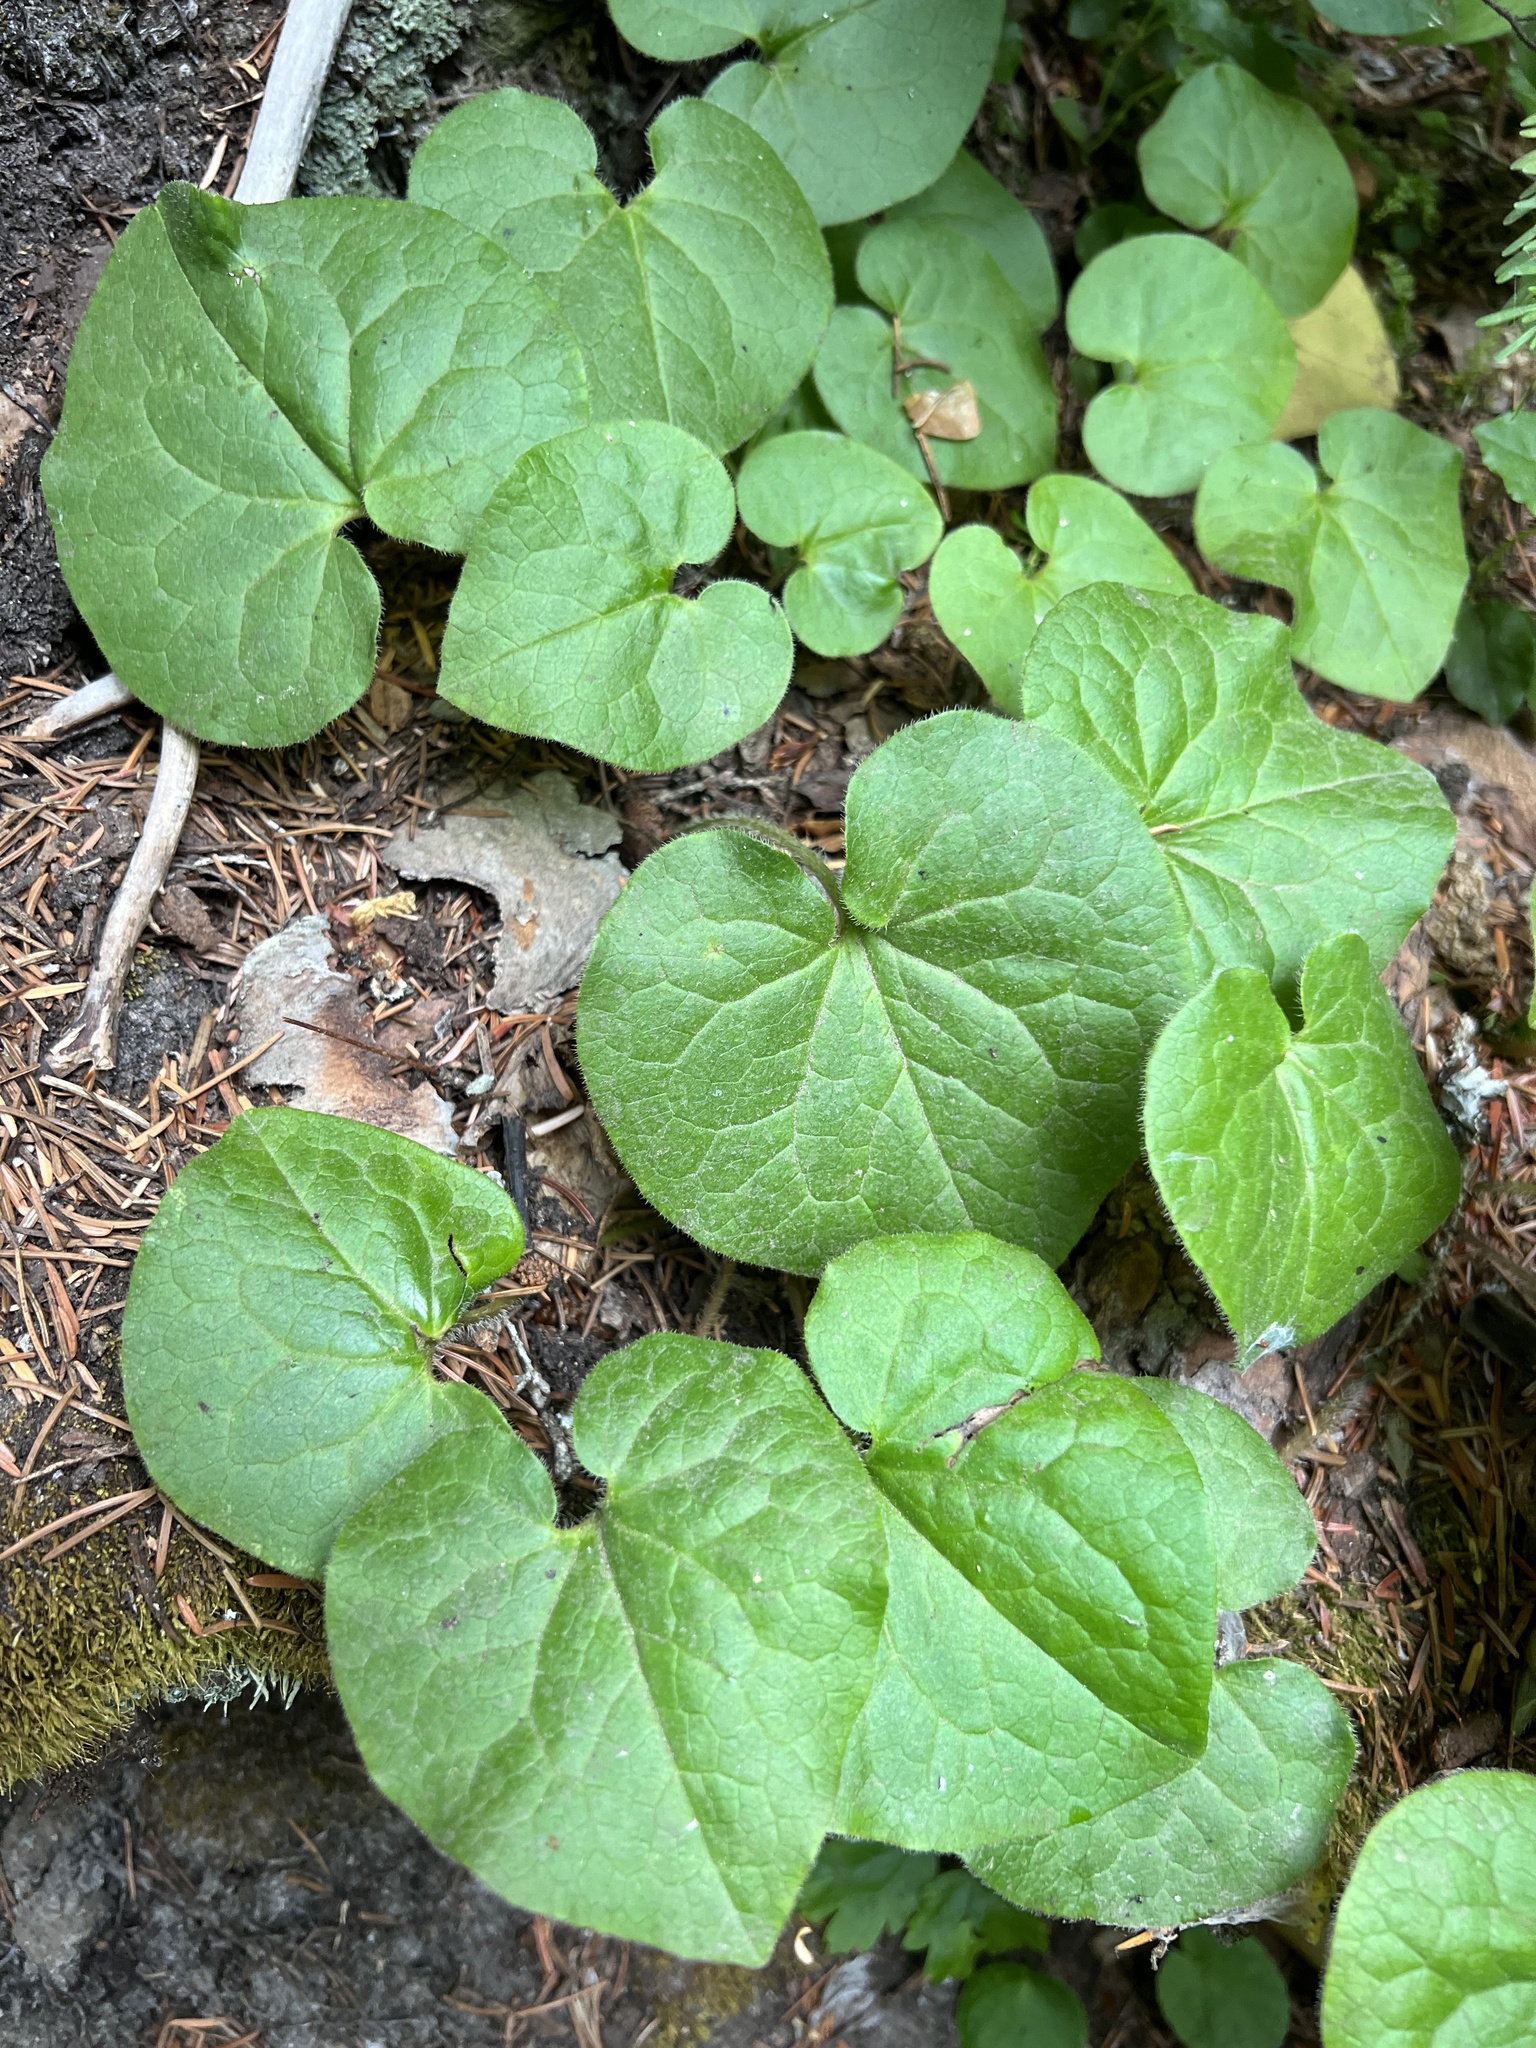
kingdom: Plantae
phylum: Tracheophyta
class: Magnoliopsida
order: Piperales
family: Aristolochiaceae
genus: Asarum
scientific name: Asarum caudatum
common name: Wild ginger
